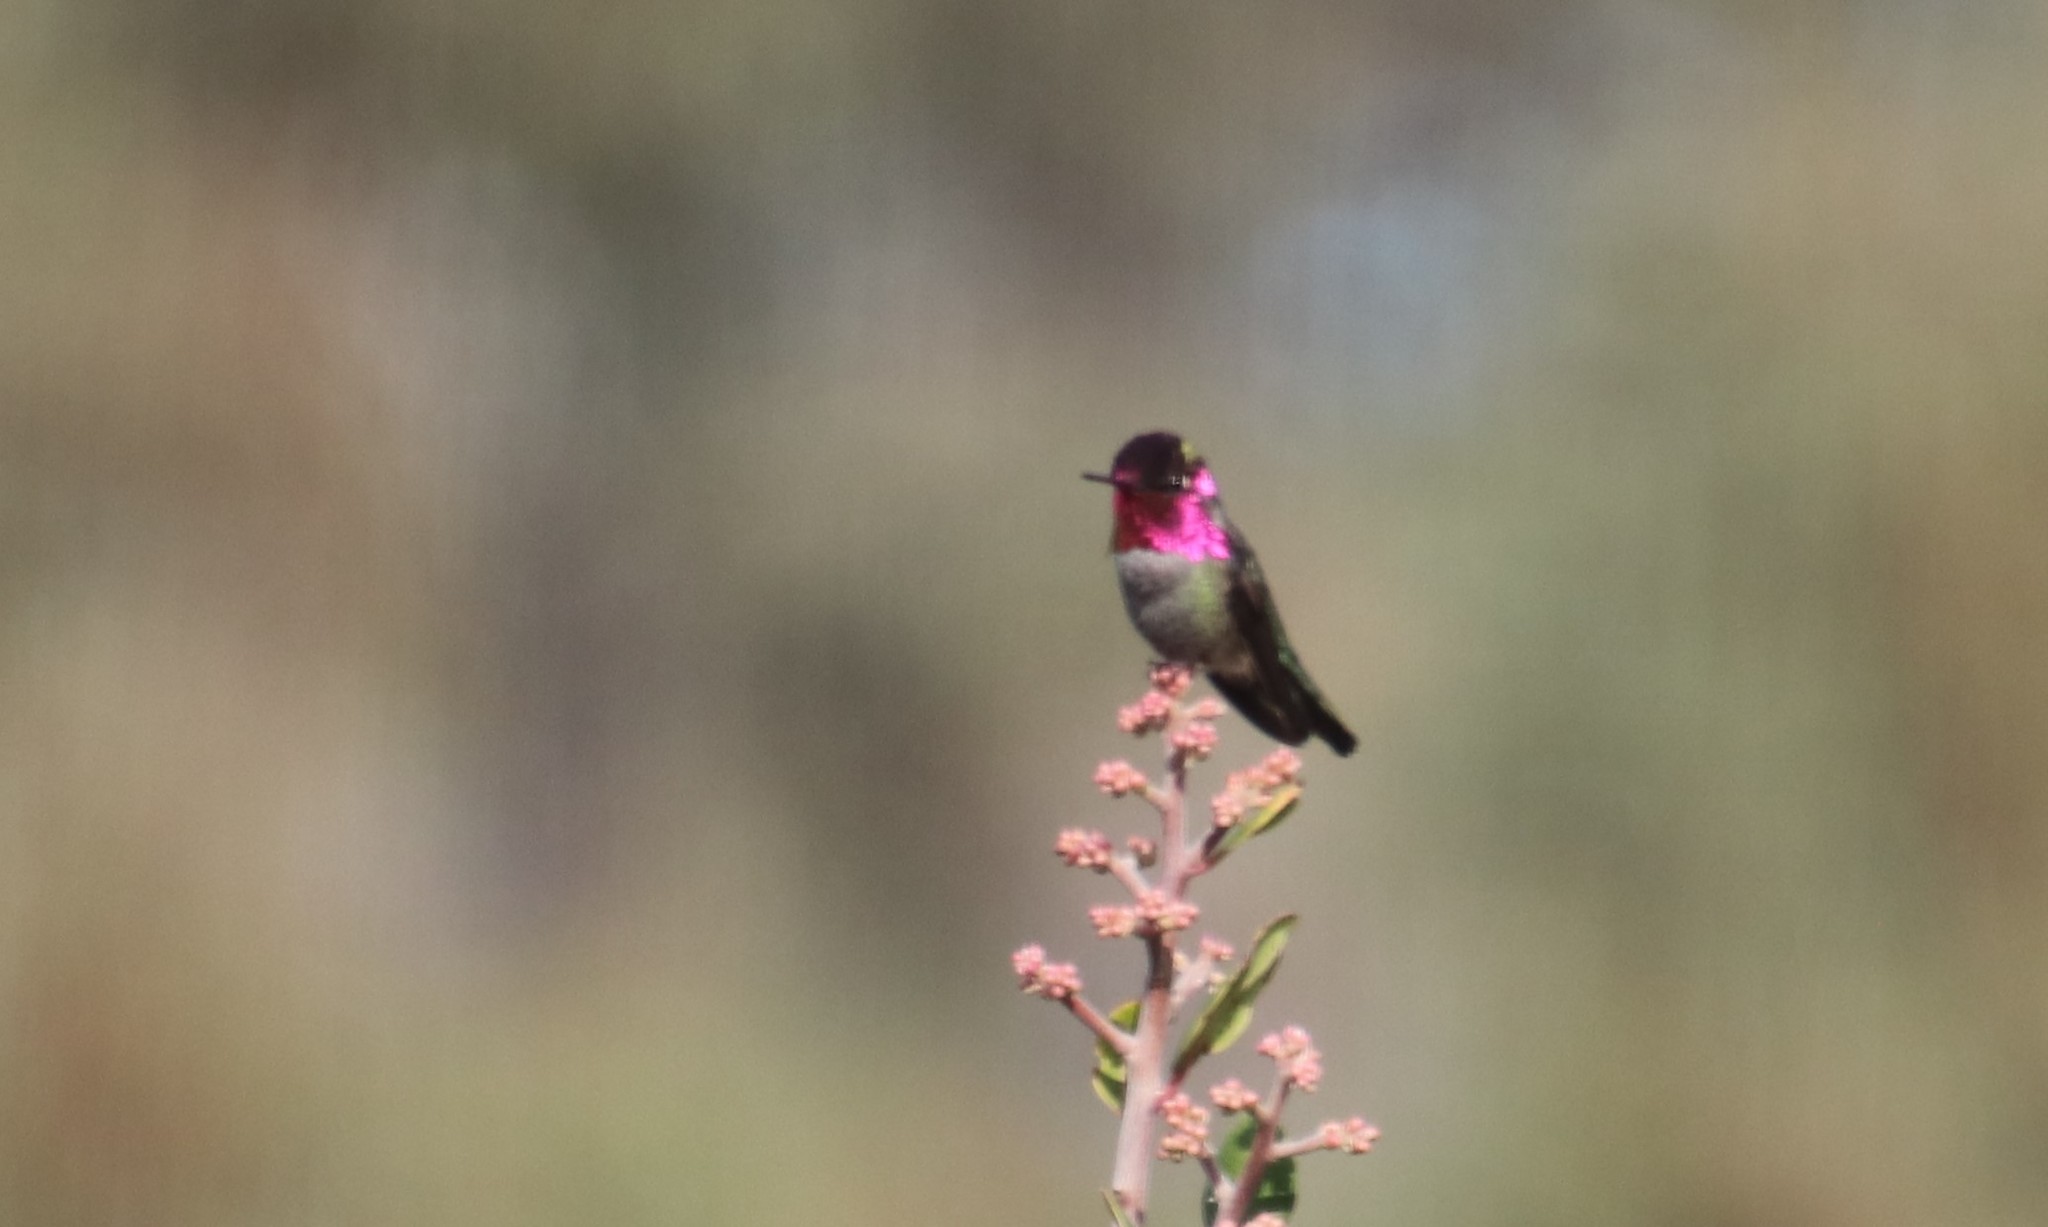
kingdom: Animalia
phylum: Chordata
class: Aves
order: Apodiformes
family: Trochilidae
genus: Calypte
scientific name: Calypte anna
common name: Anna's hummingbird
